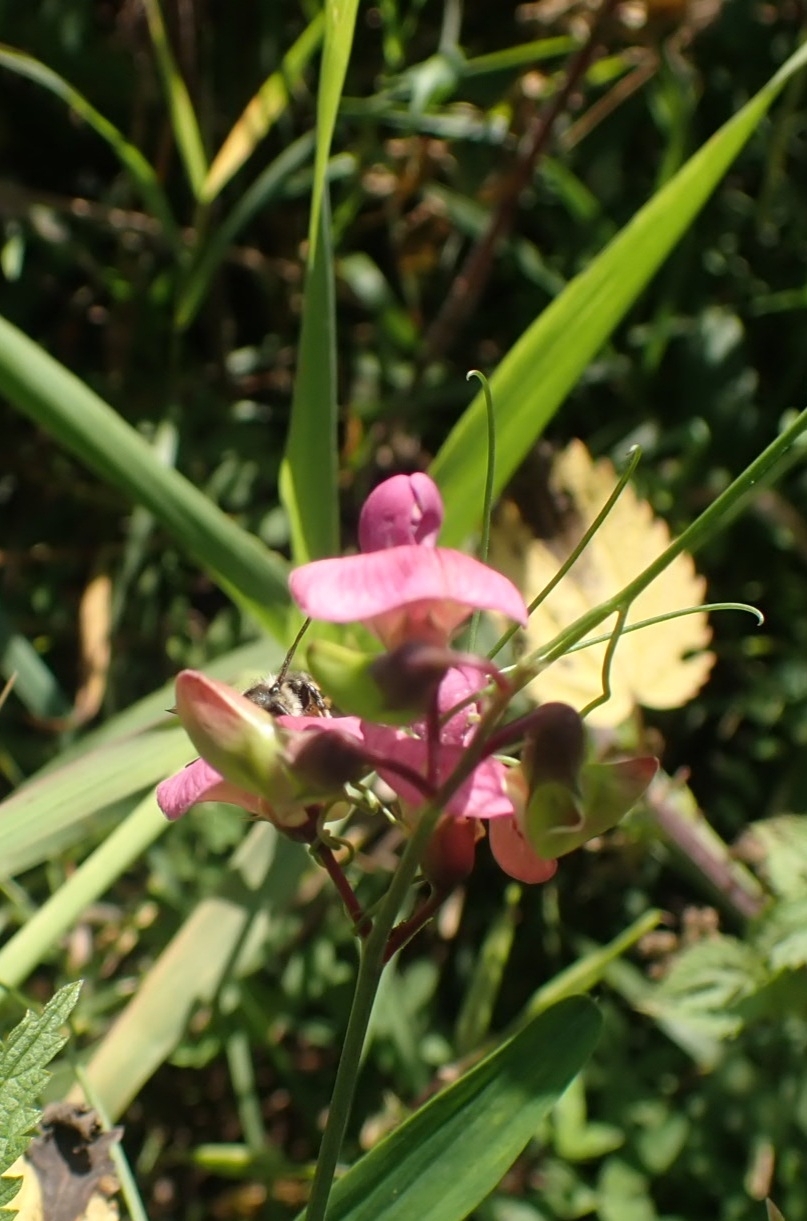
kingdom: Plantae
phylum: Tracheophyta
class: Magnoliopsida
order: Fabales
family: Fabaceae
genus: Lathyrus
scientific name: Lathyrus sylvestris
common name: Flat pea
